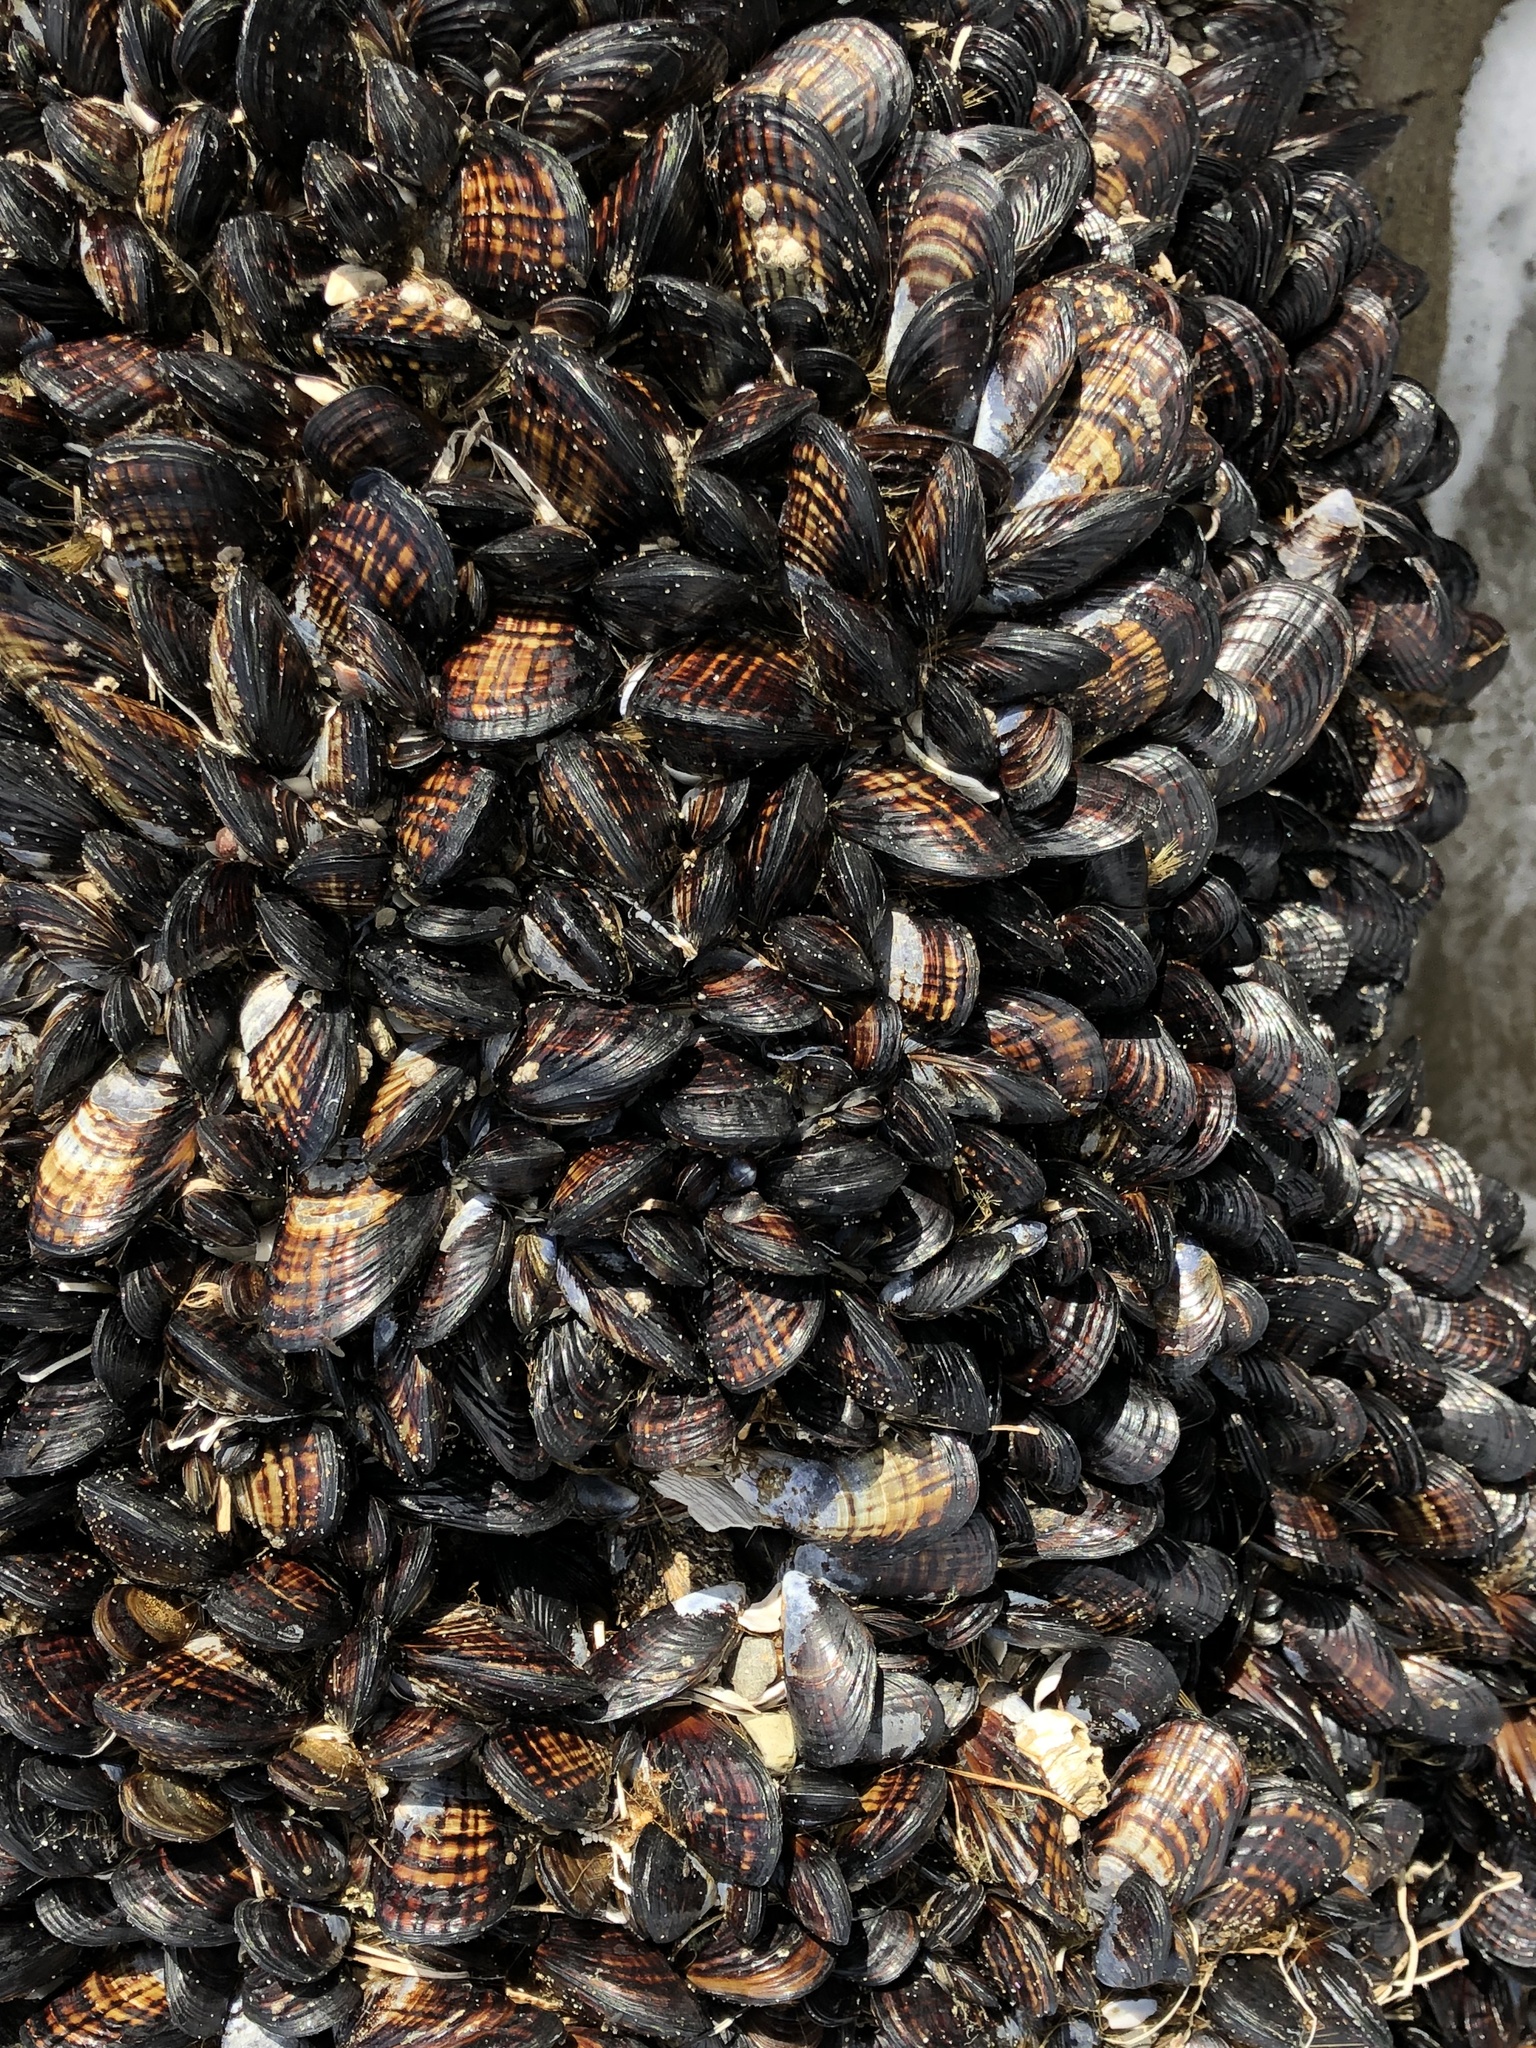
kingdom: Animalia
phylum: Mollusca
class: Bivalvia
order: Mytilida
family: Mytilidae
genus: Mytilus
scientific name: Mytilus californianus
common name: California mussel
